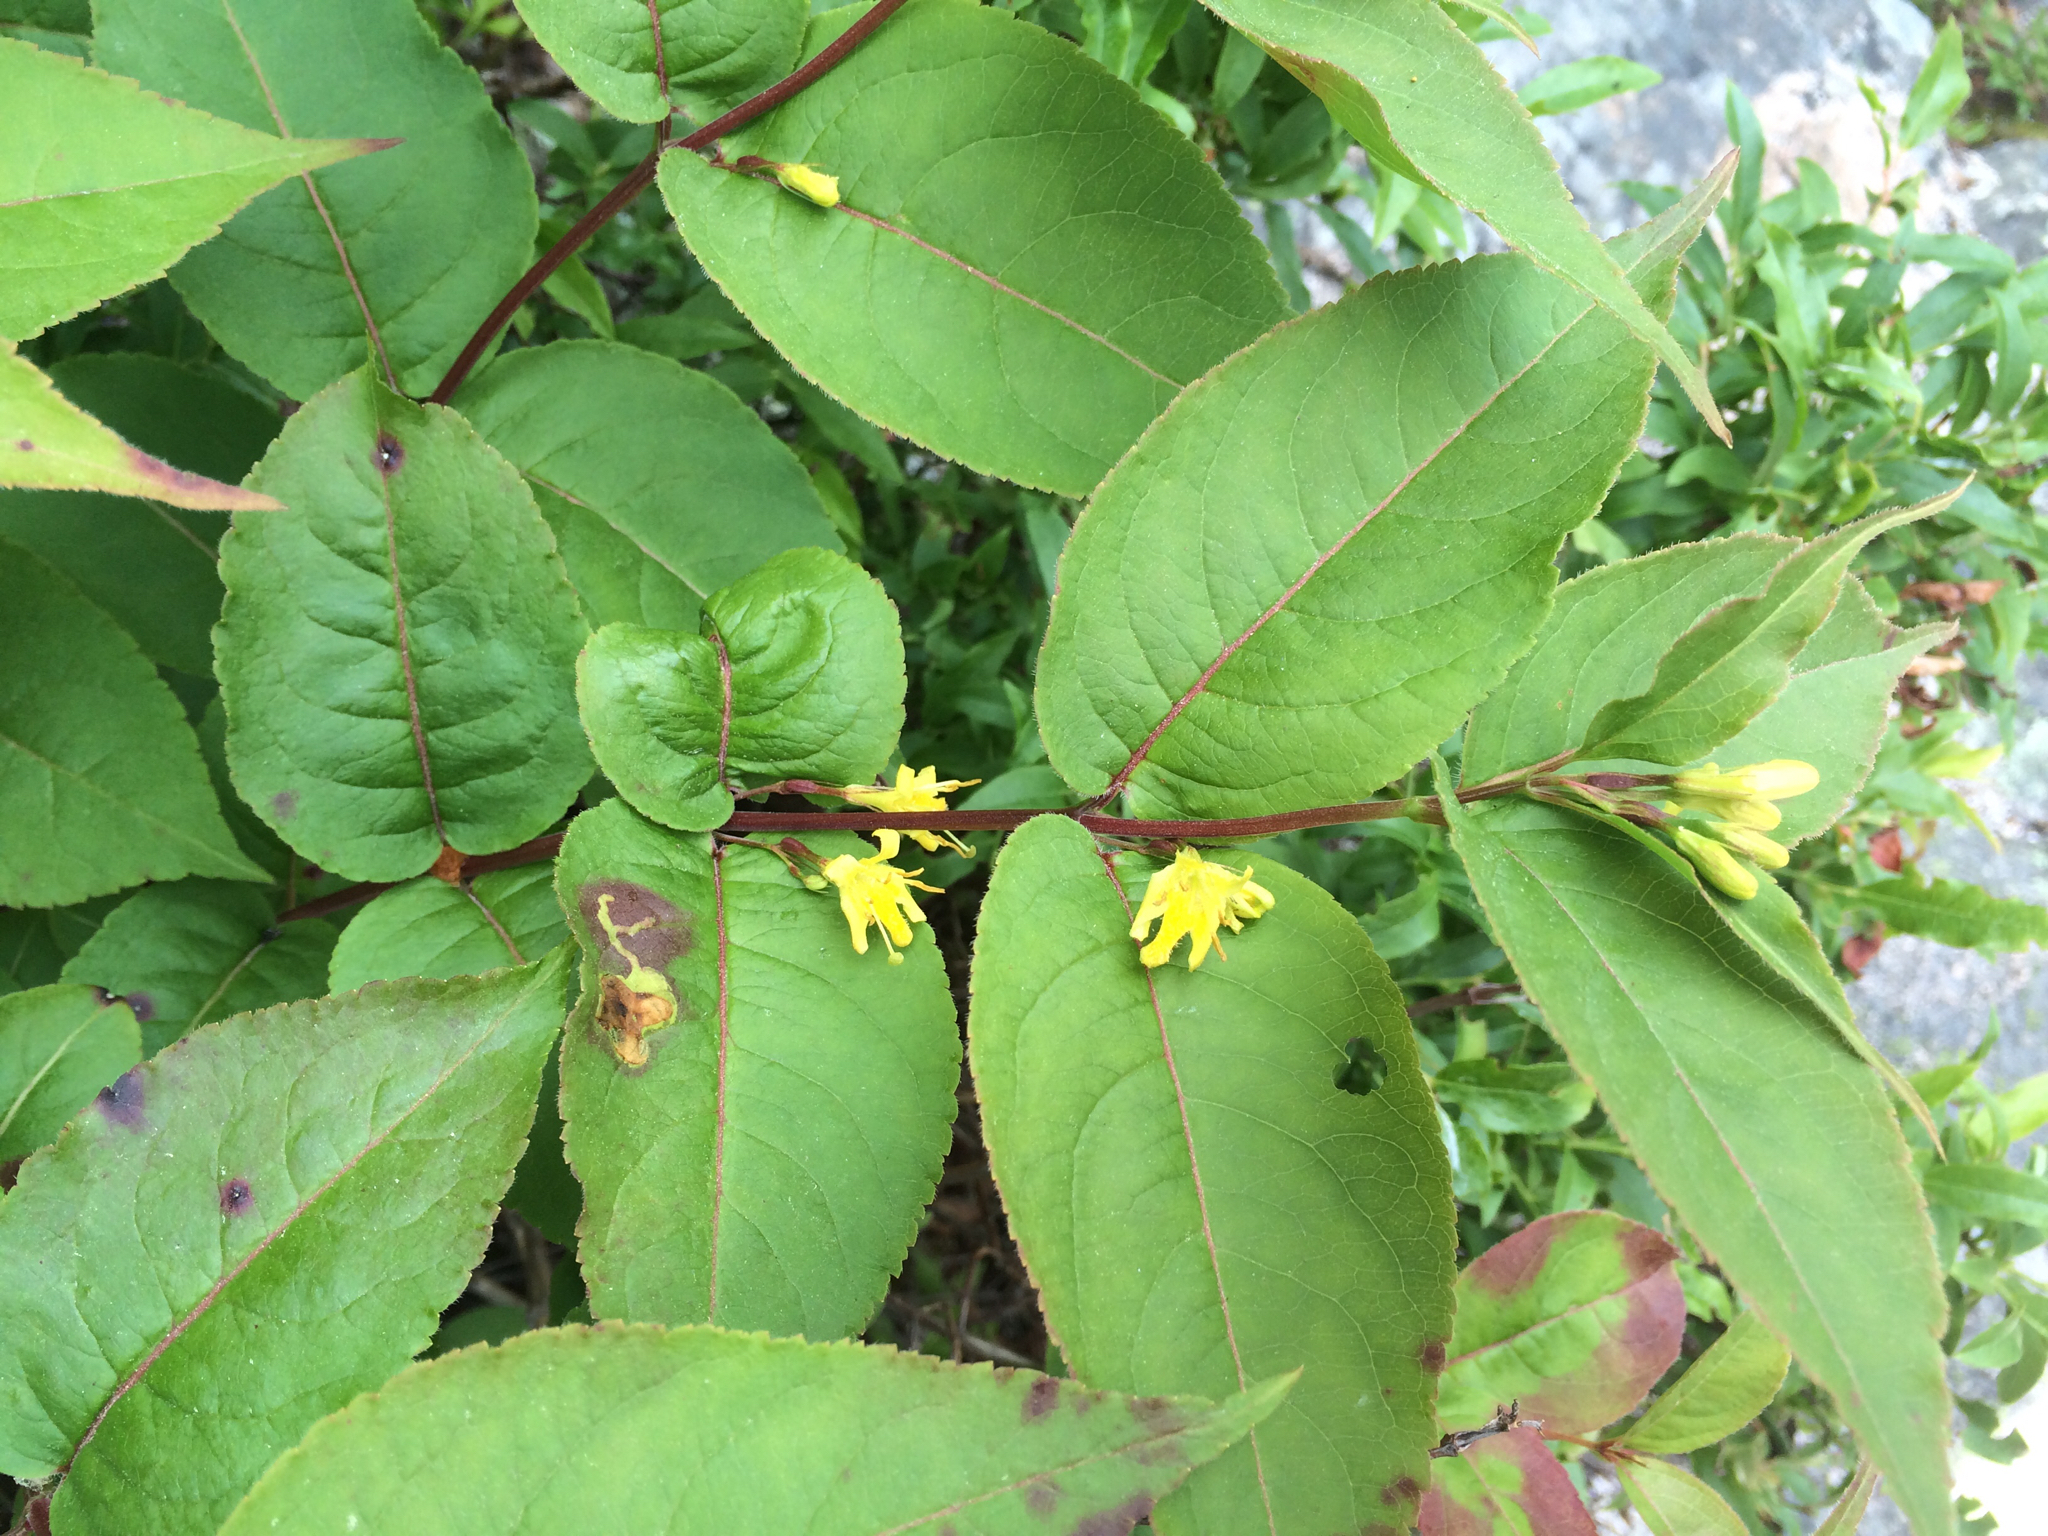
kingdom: Plantae
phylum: Tracheophyta
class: Magnoliopsida
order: Dipsacales
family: Caprifoliaceae
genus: Diervilla
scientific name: Diervilla lonicera
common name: Bush-honeysuckle
